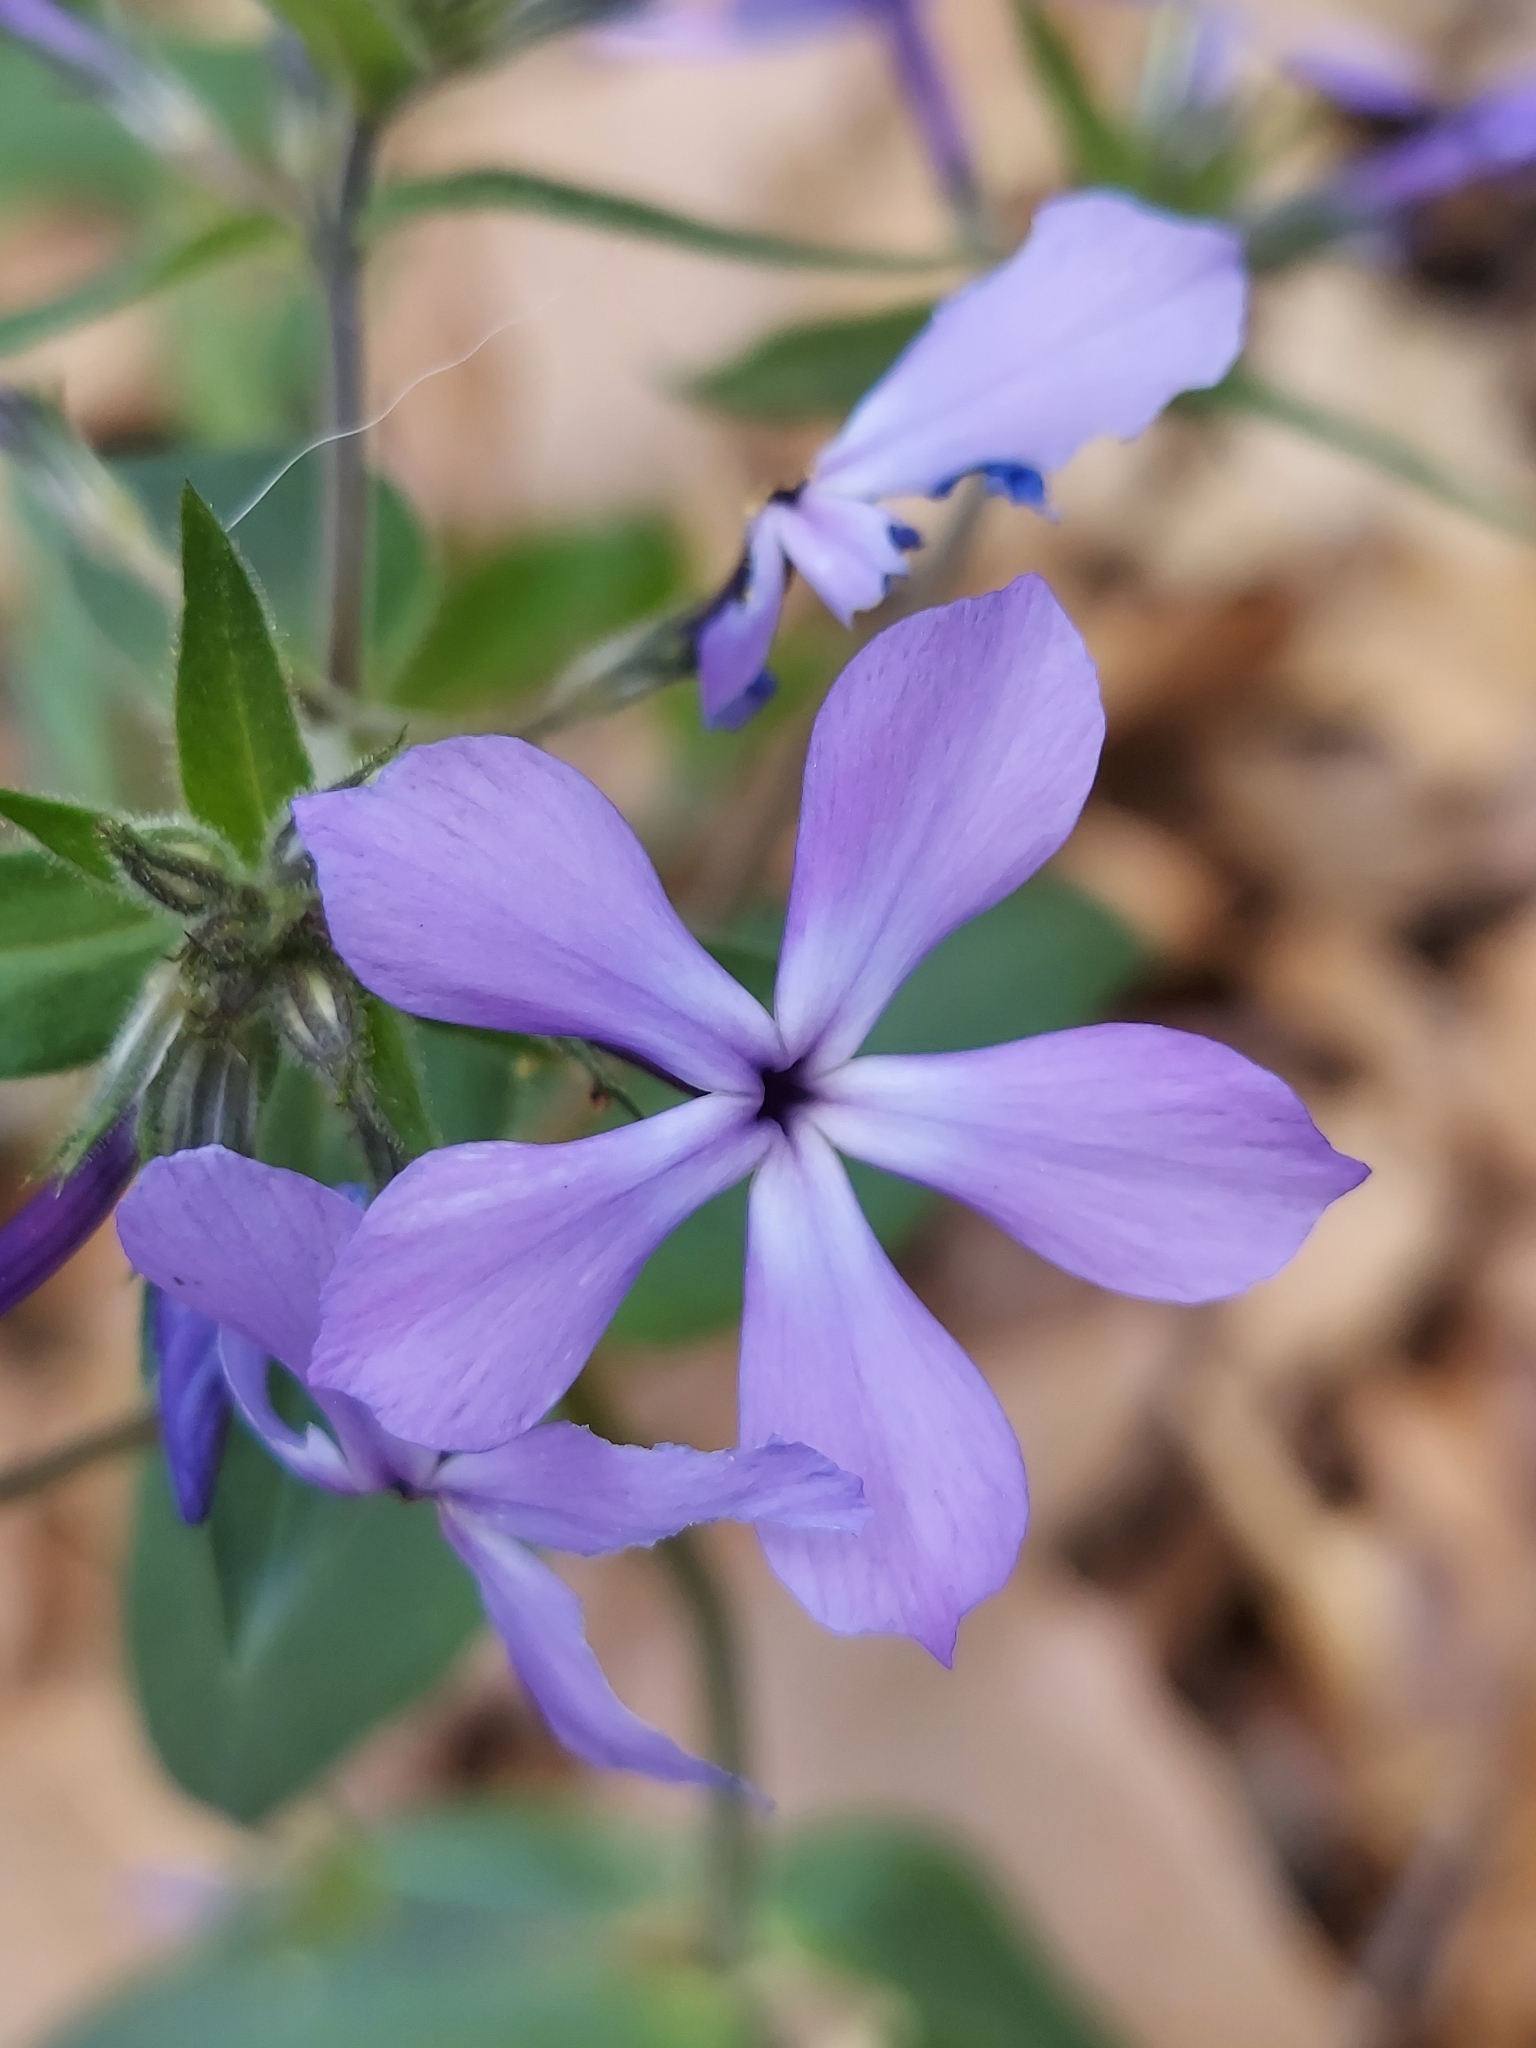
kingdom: Plantae
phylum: Tracheophyta
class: Magnoliopsida
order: Ericales
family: Polemoniaceae
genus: Phlox
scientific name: Phlox divaricata
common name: Blue phlox
